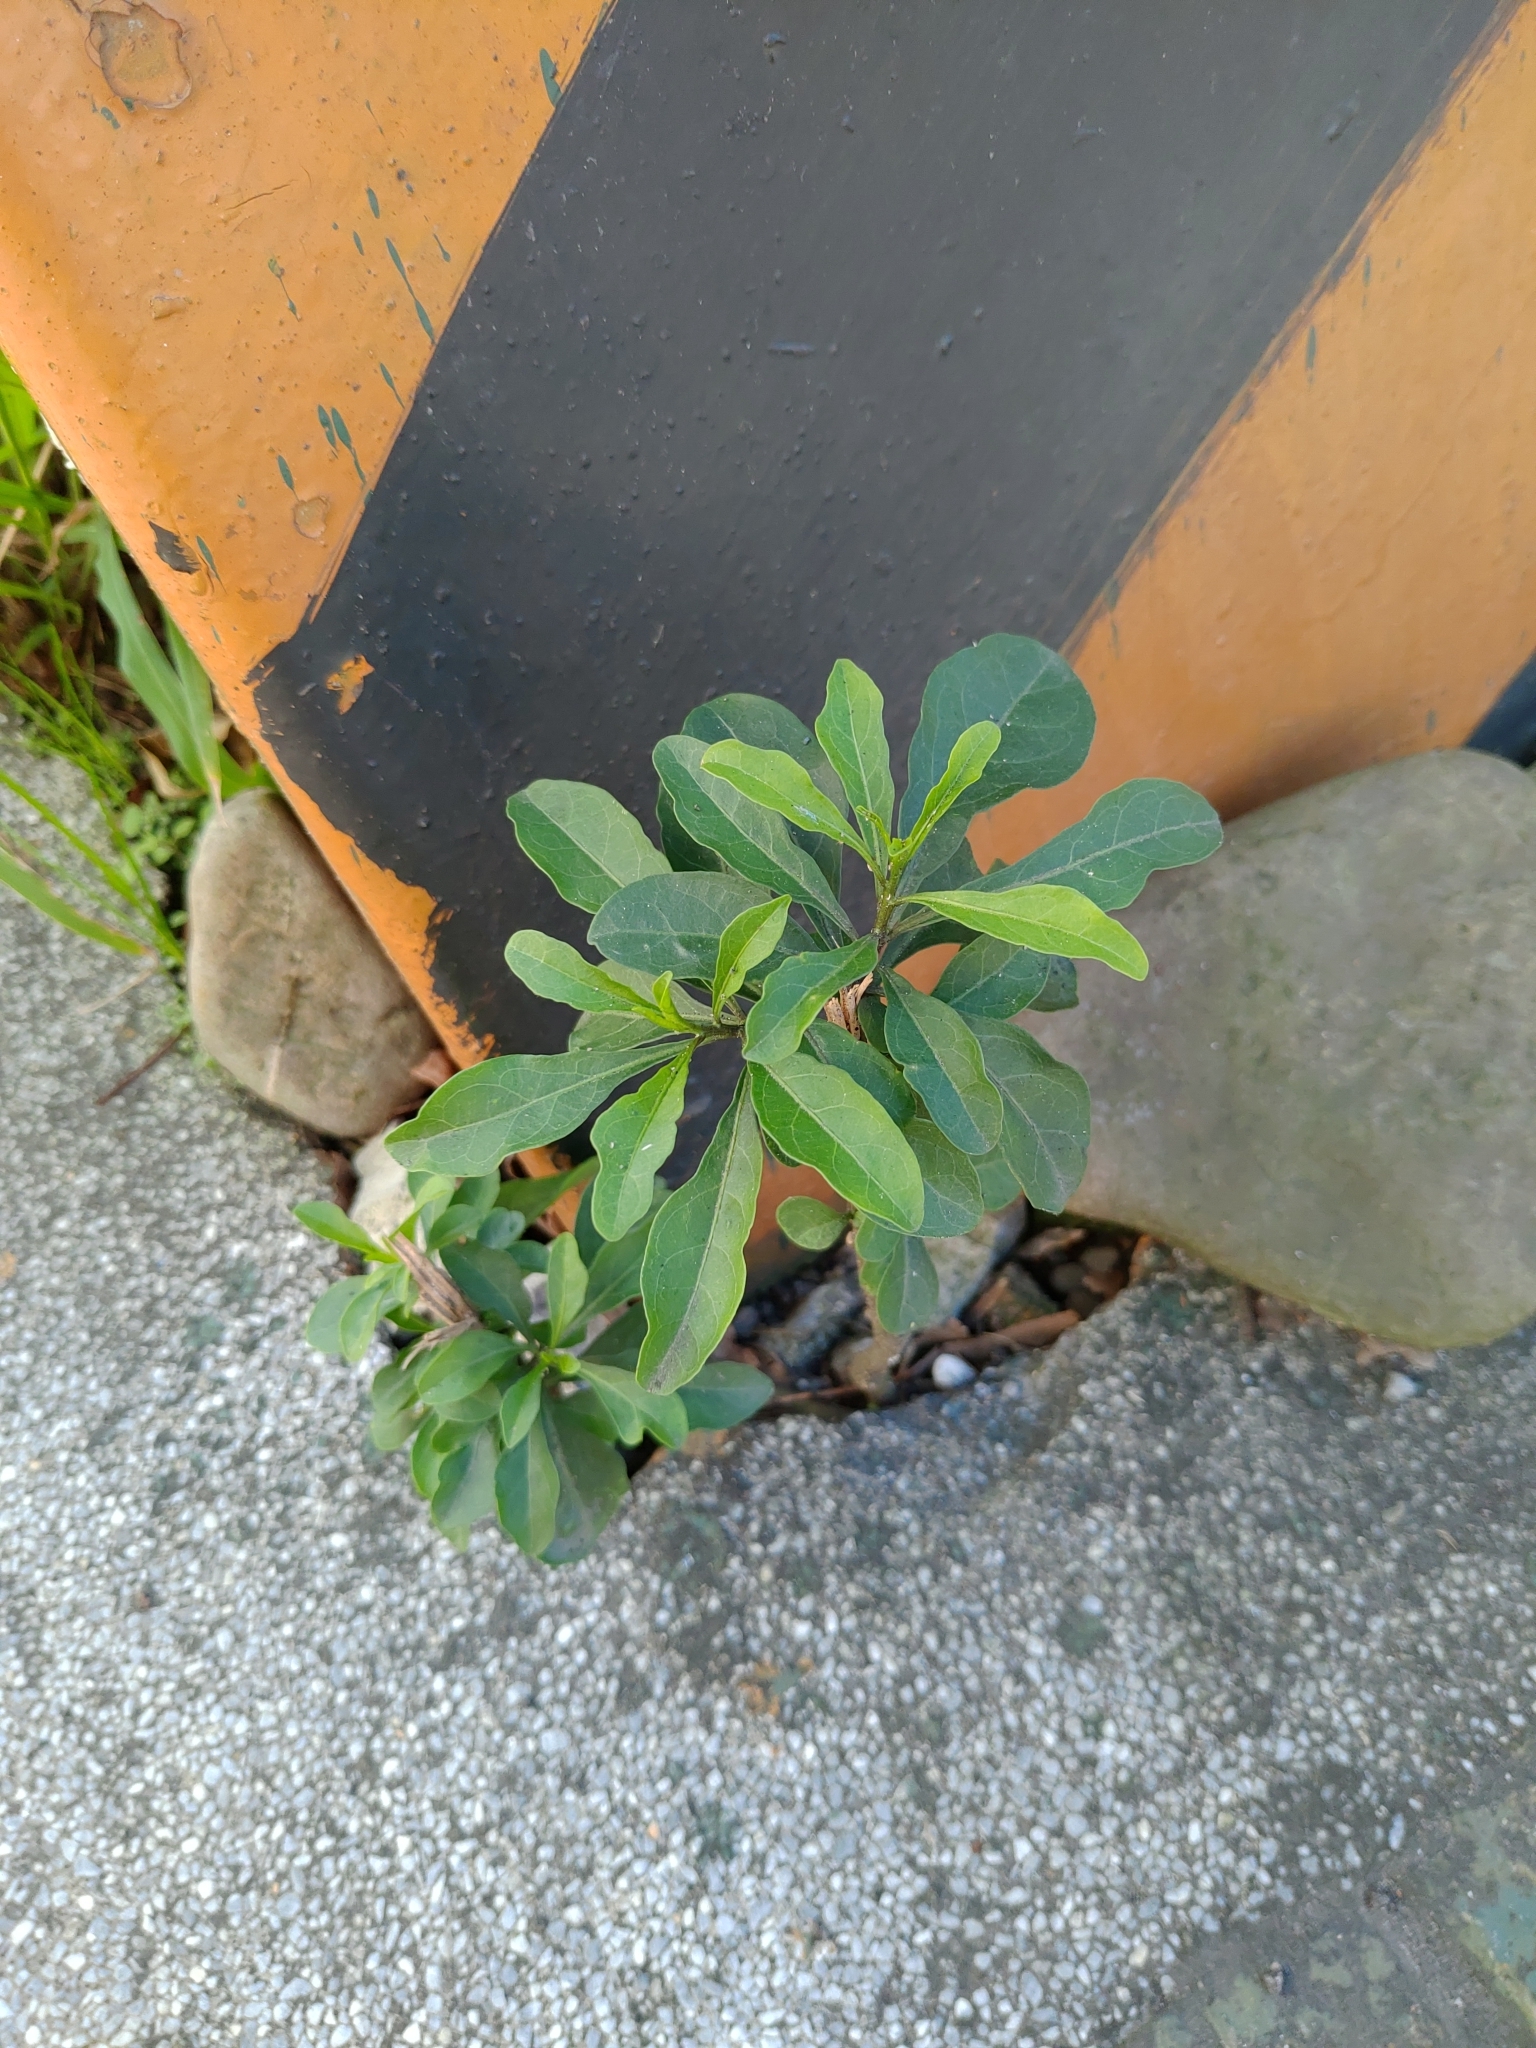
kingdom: Plantae
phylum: Tracheophyta
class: Magnoliopsida
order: Solanales
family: Solanaceae
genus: Solanum
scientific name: Solanum diphyllum
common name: Twoleaf nightshade
